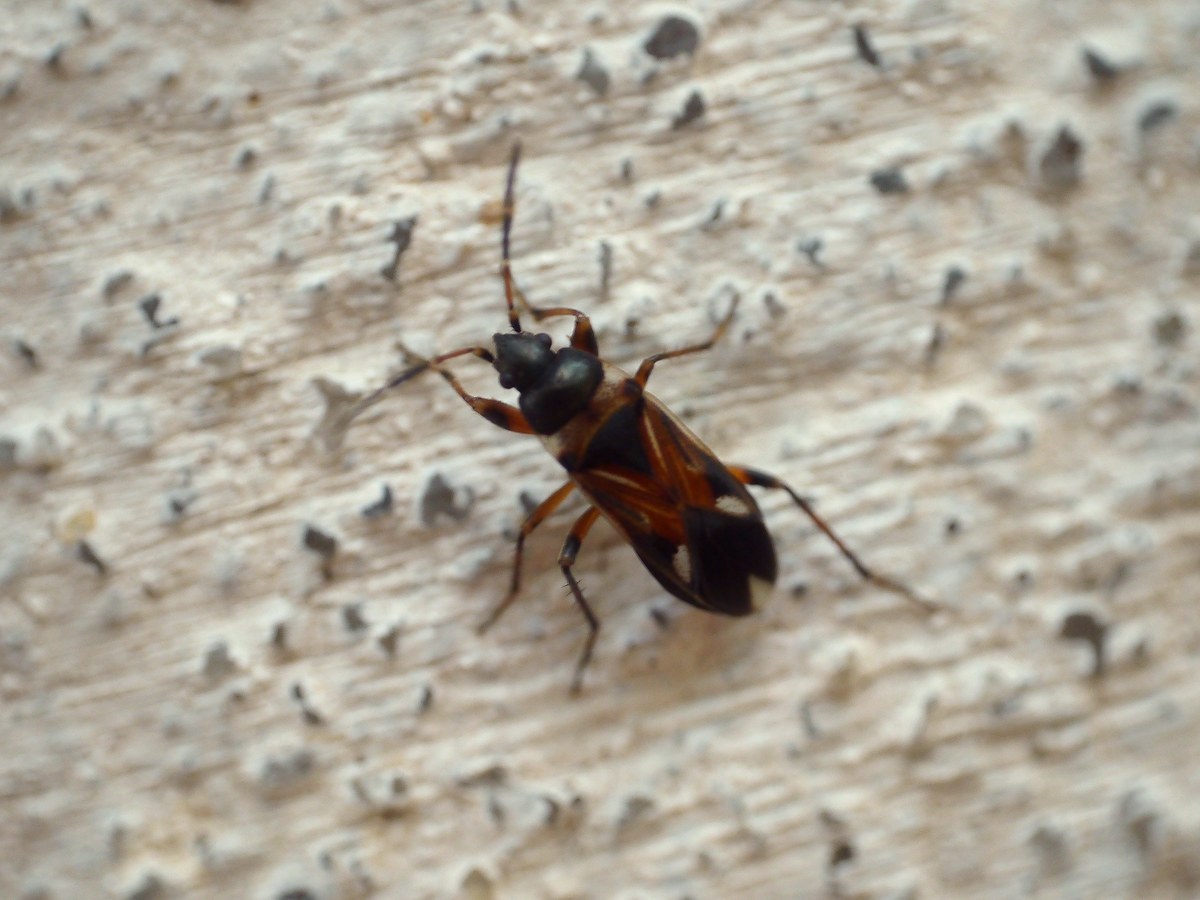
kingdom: Animalia
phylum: Arthropoda
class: Insecta
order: Hemiptera
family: Rhyparochromidae
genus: Raglius
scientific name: Raglius alboacuminatus
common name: Dirt-colored seed bug
